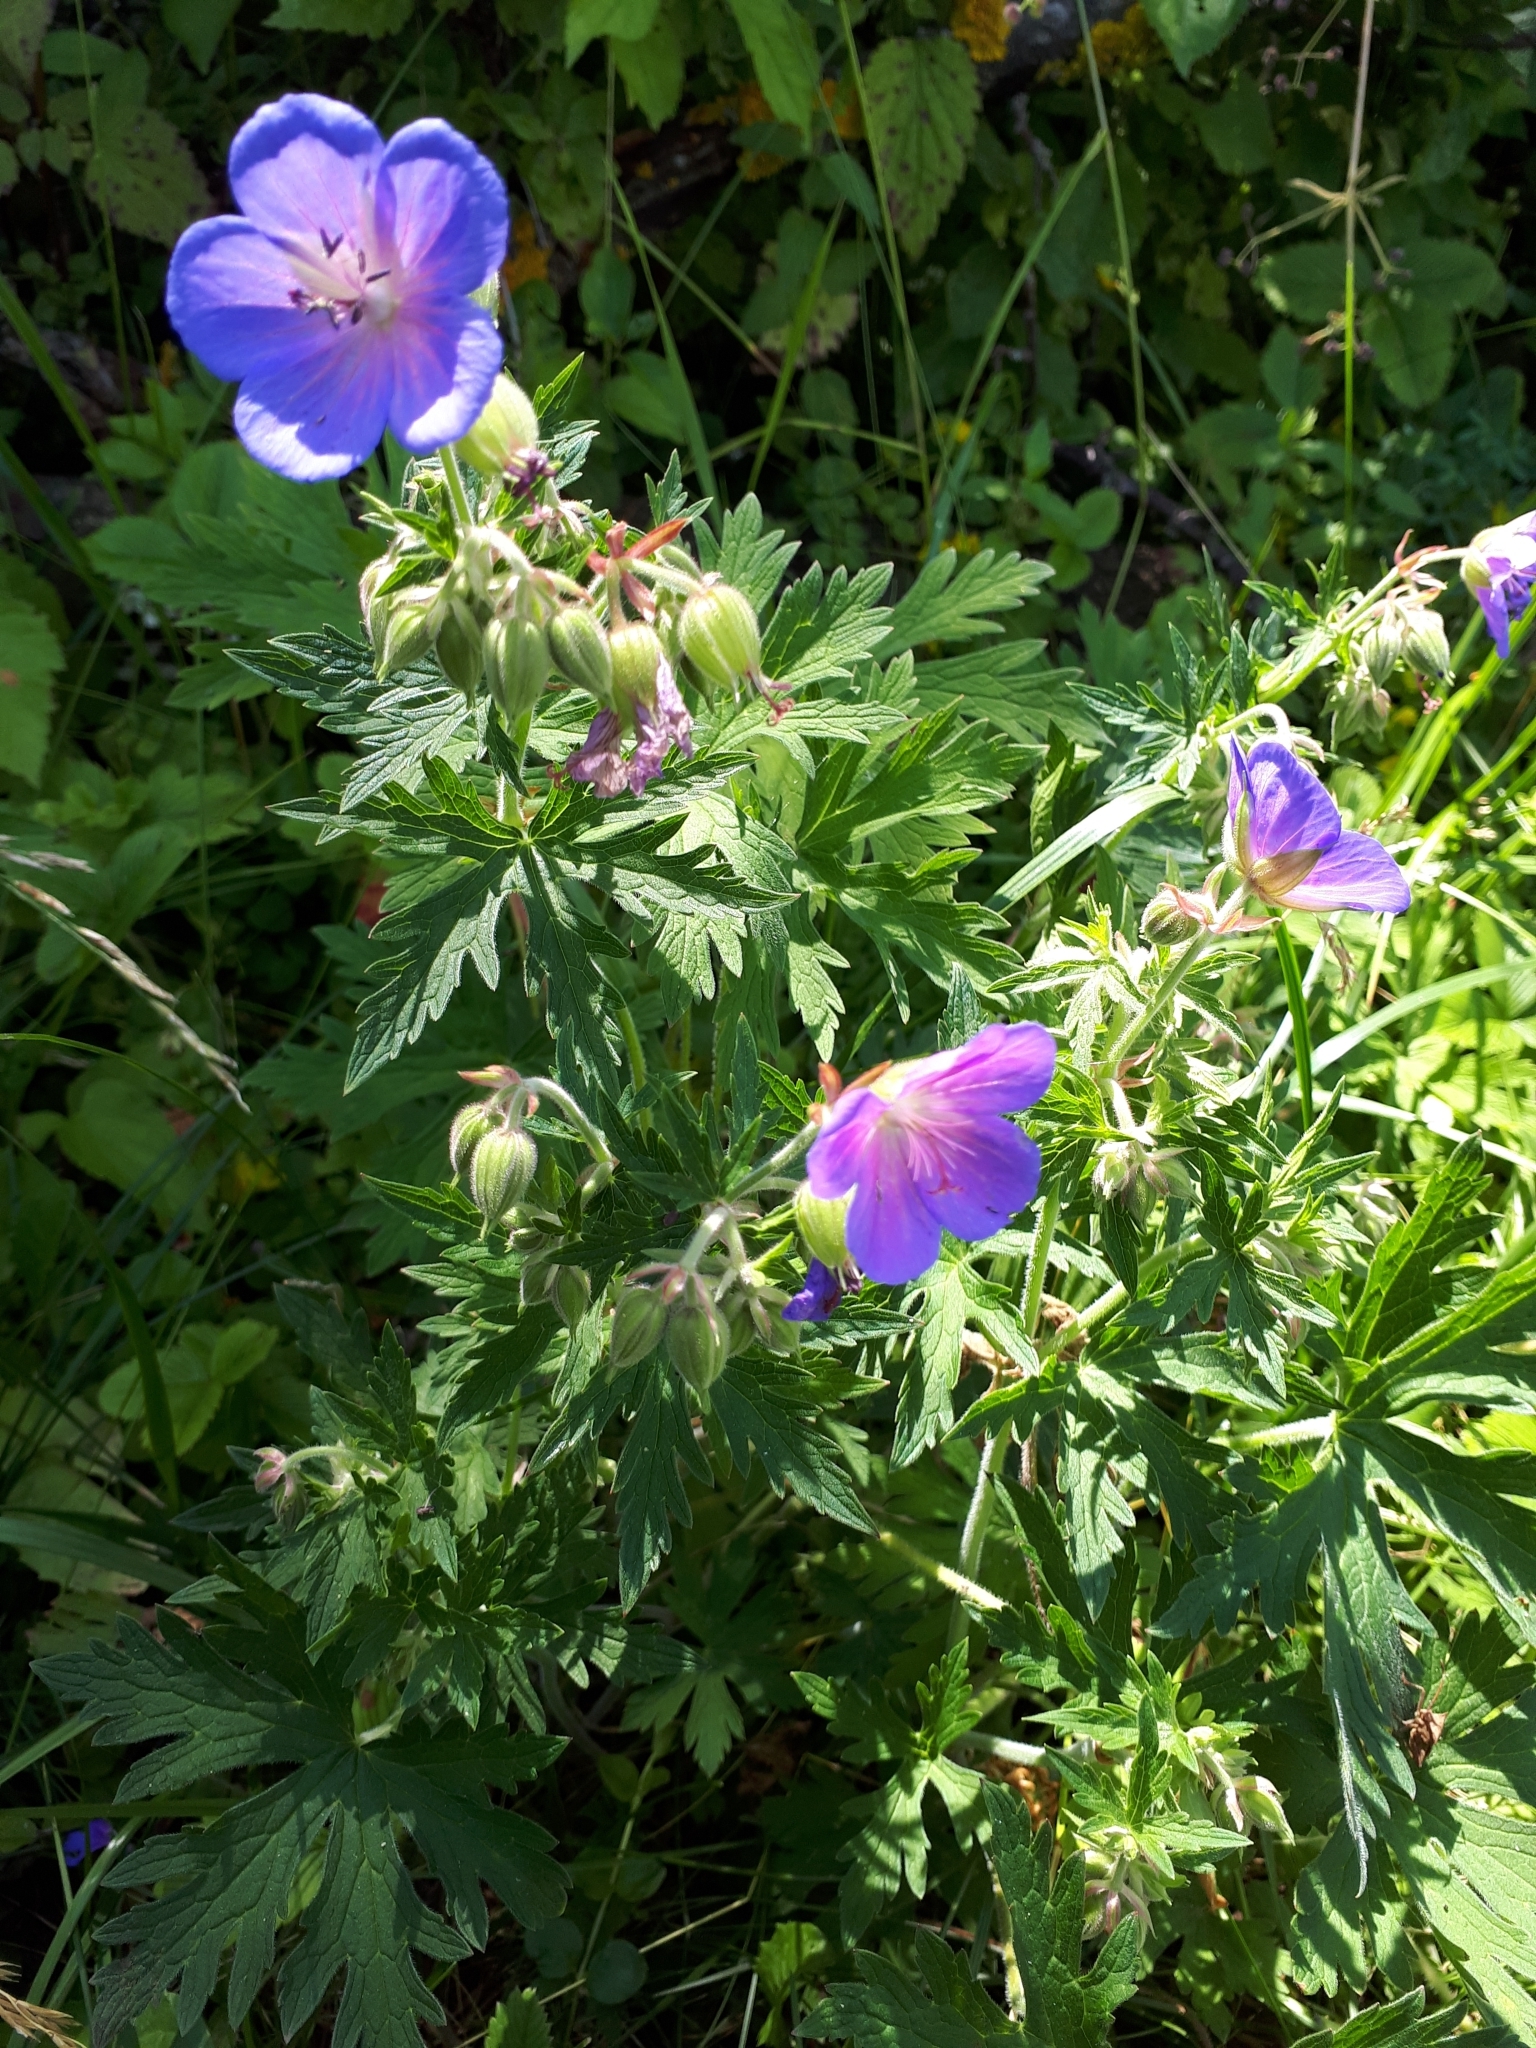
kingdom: Plantae
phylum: Tracheophyta
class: Magnoliopsida
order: Geraniales
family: Geraniaceae
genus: Geranium
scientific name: Geranium pratense
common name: Meadow crane's-bill
